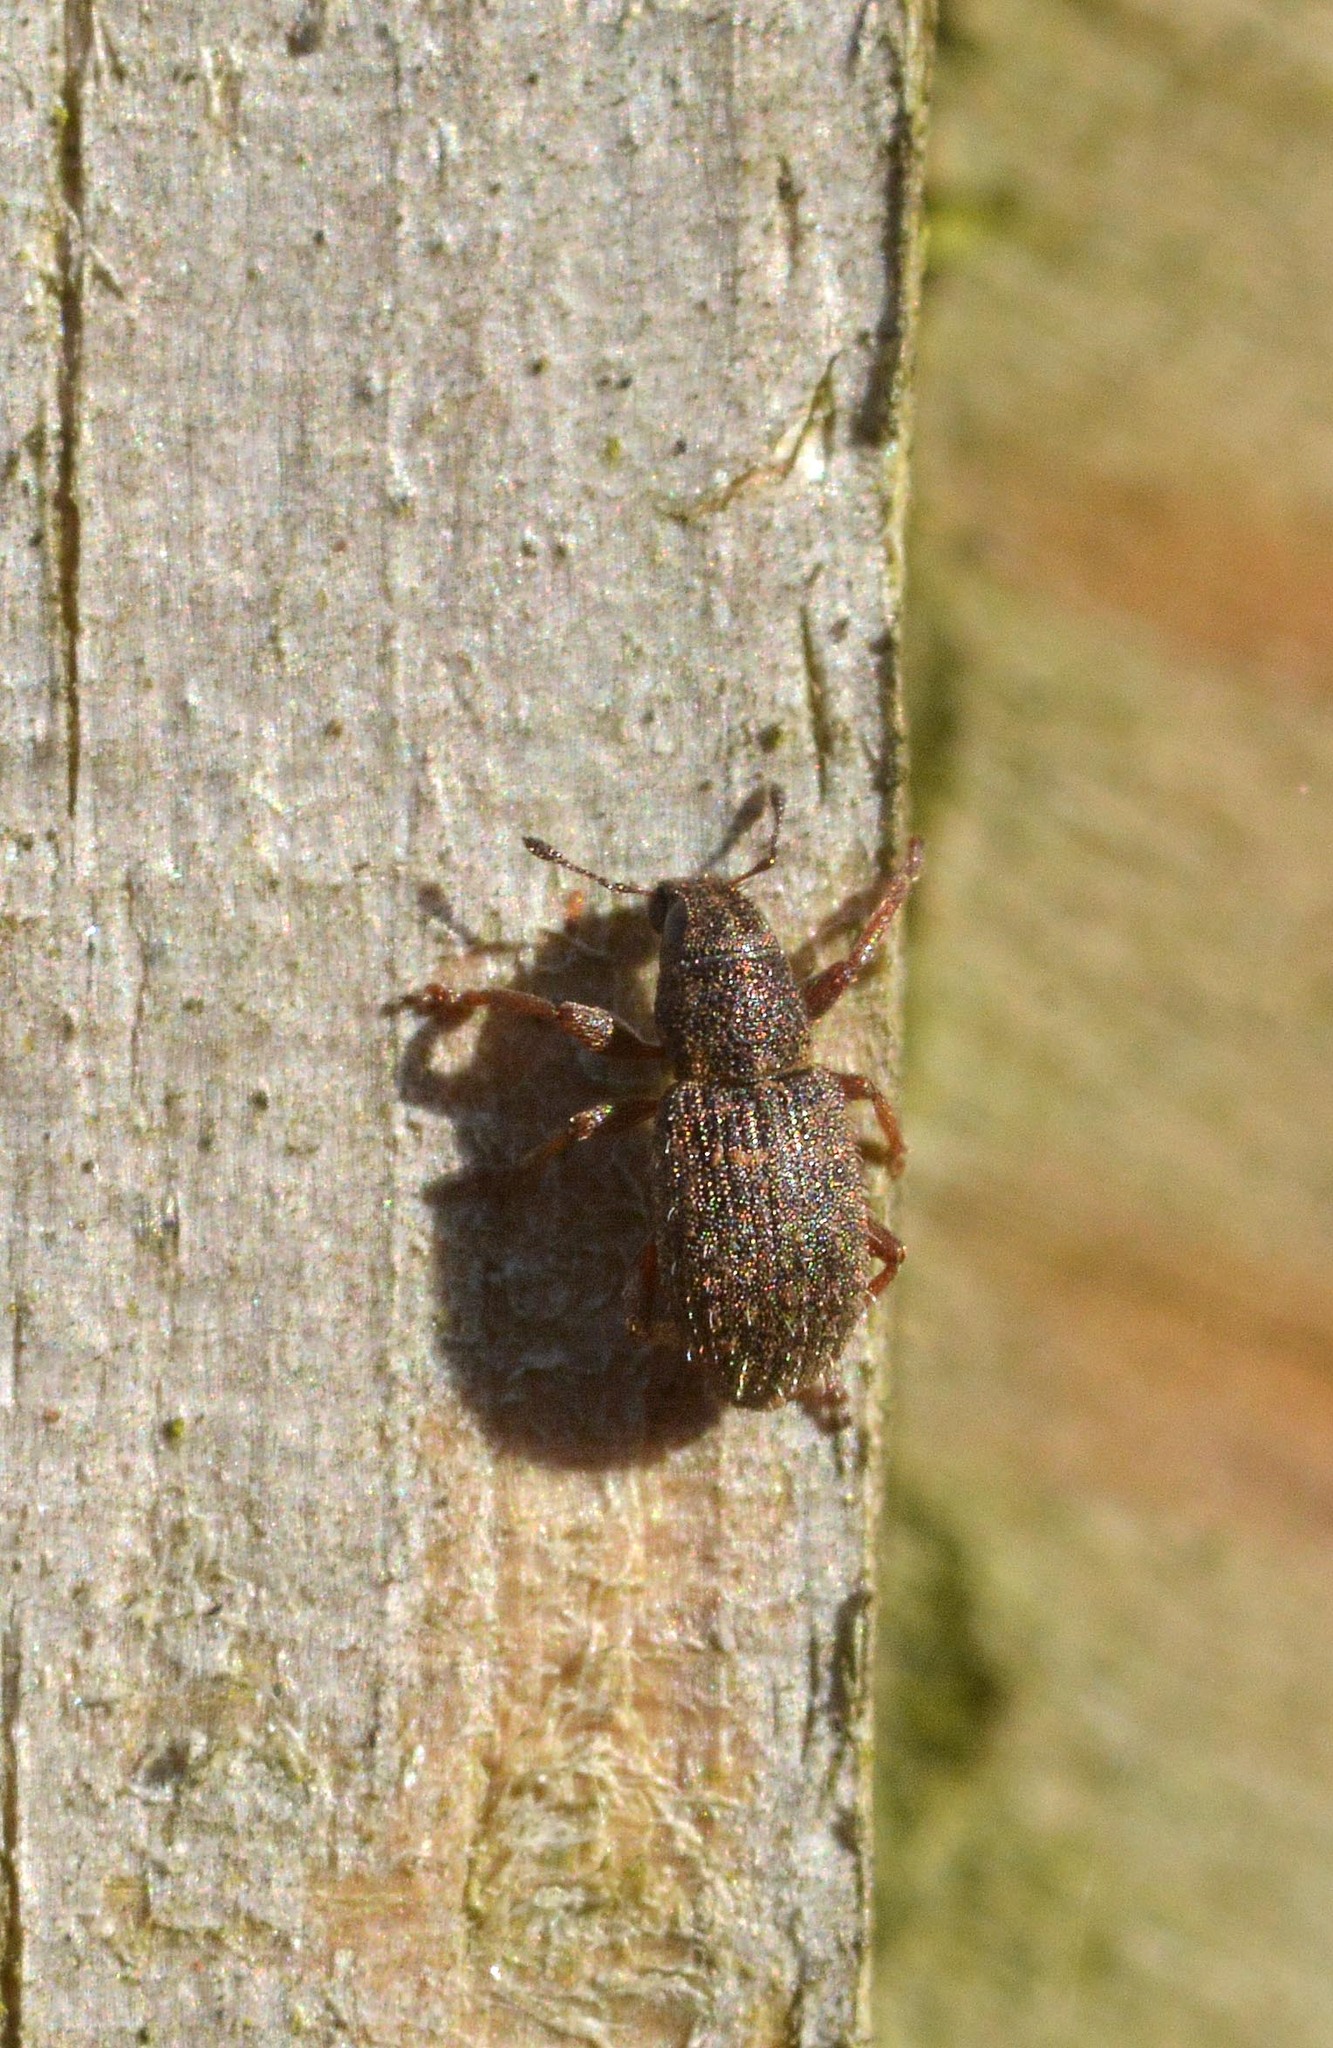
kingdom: Animalia
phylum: Arthropoda
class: Insecta
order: Coleoptera
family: Curculionidae
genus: Sitona
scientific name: Sitona hispidulus
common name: Clover weevil
